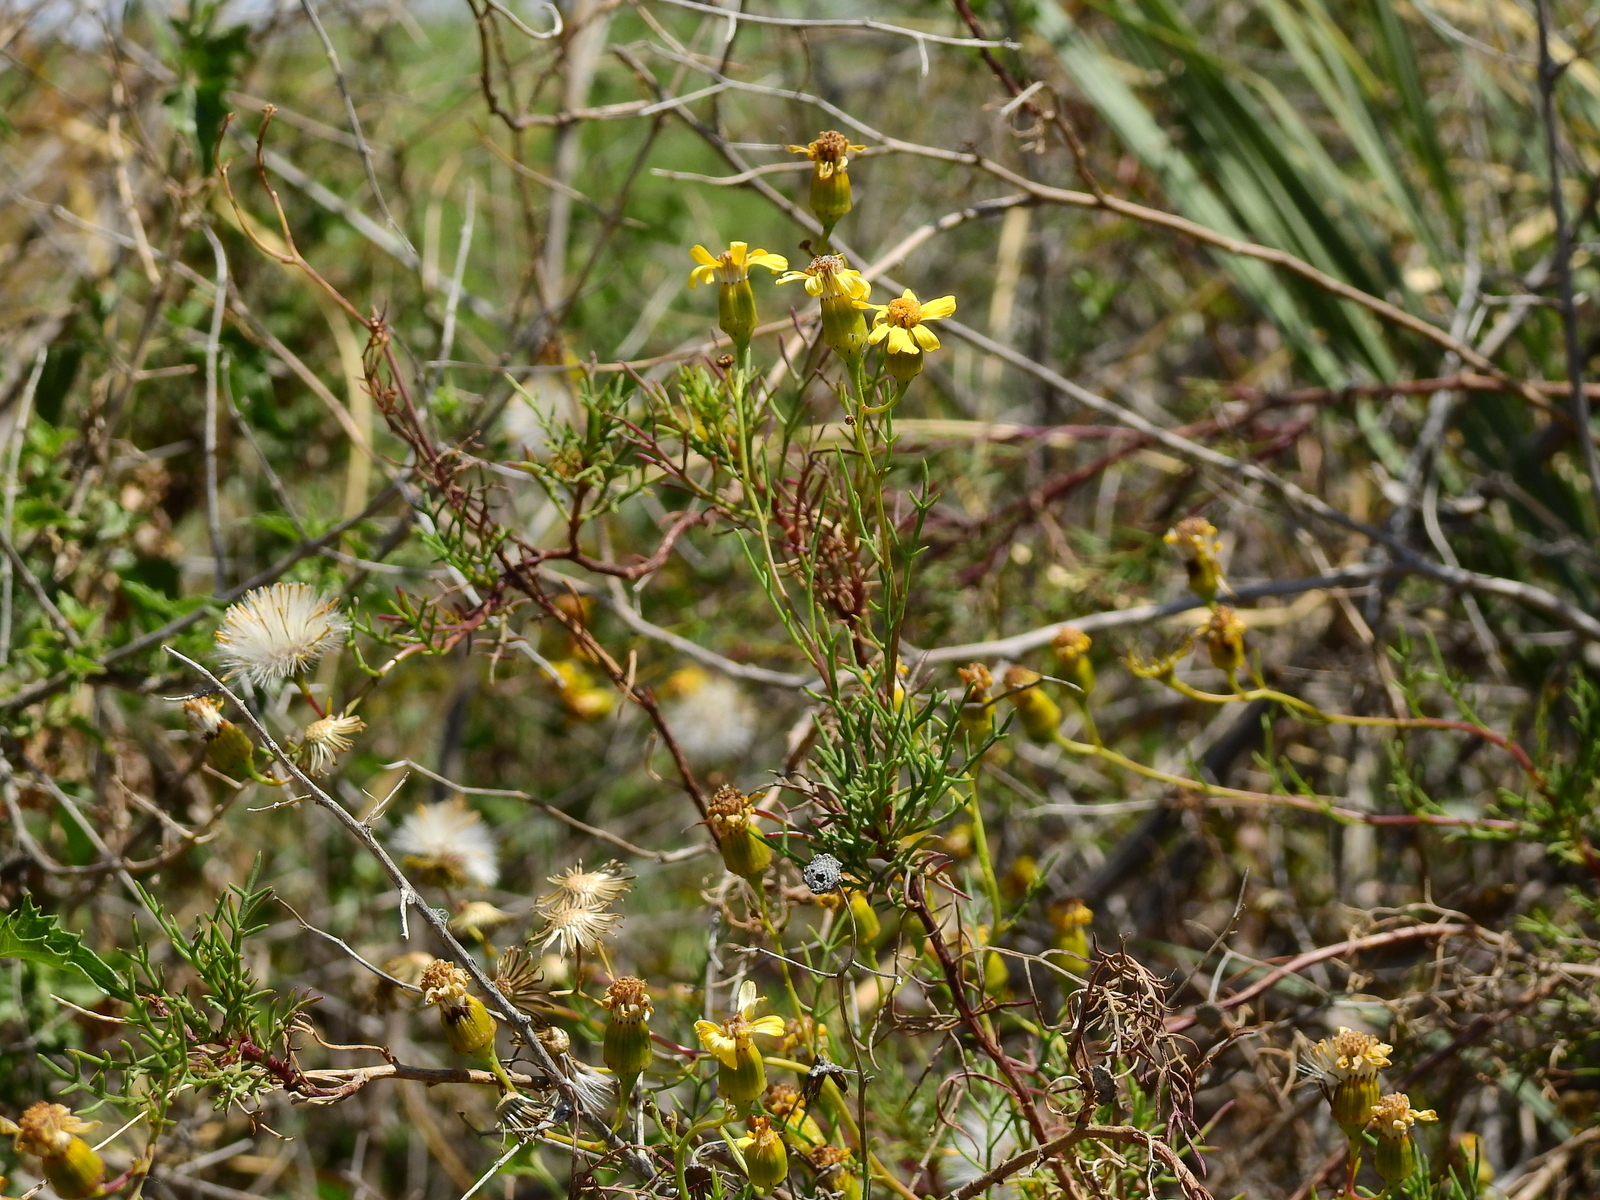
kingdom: Plantae
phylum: Tracheophyta
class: Magnoliopsida
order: Asterales
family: Asteraceae
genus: Senecio
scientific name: Senecio subulatus
